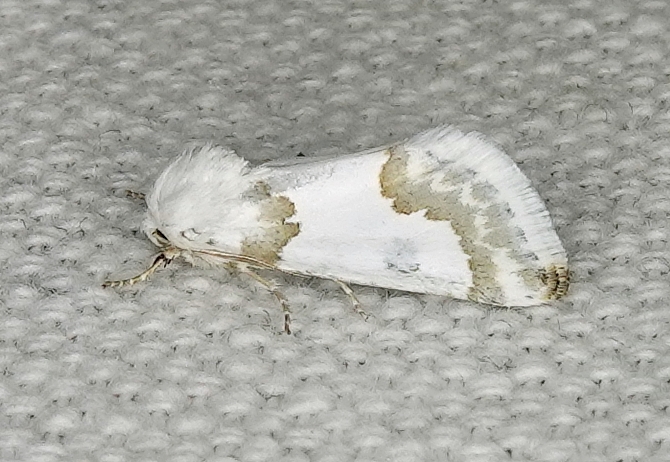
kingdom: Animalia
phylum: Arthropoda
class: Insecta
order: Lepidoptera
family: Noctuidae
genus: Schinia
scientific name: Schinia cumatilis
